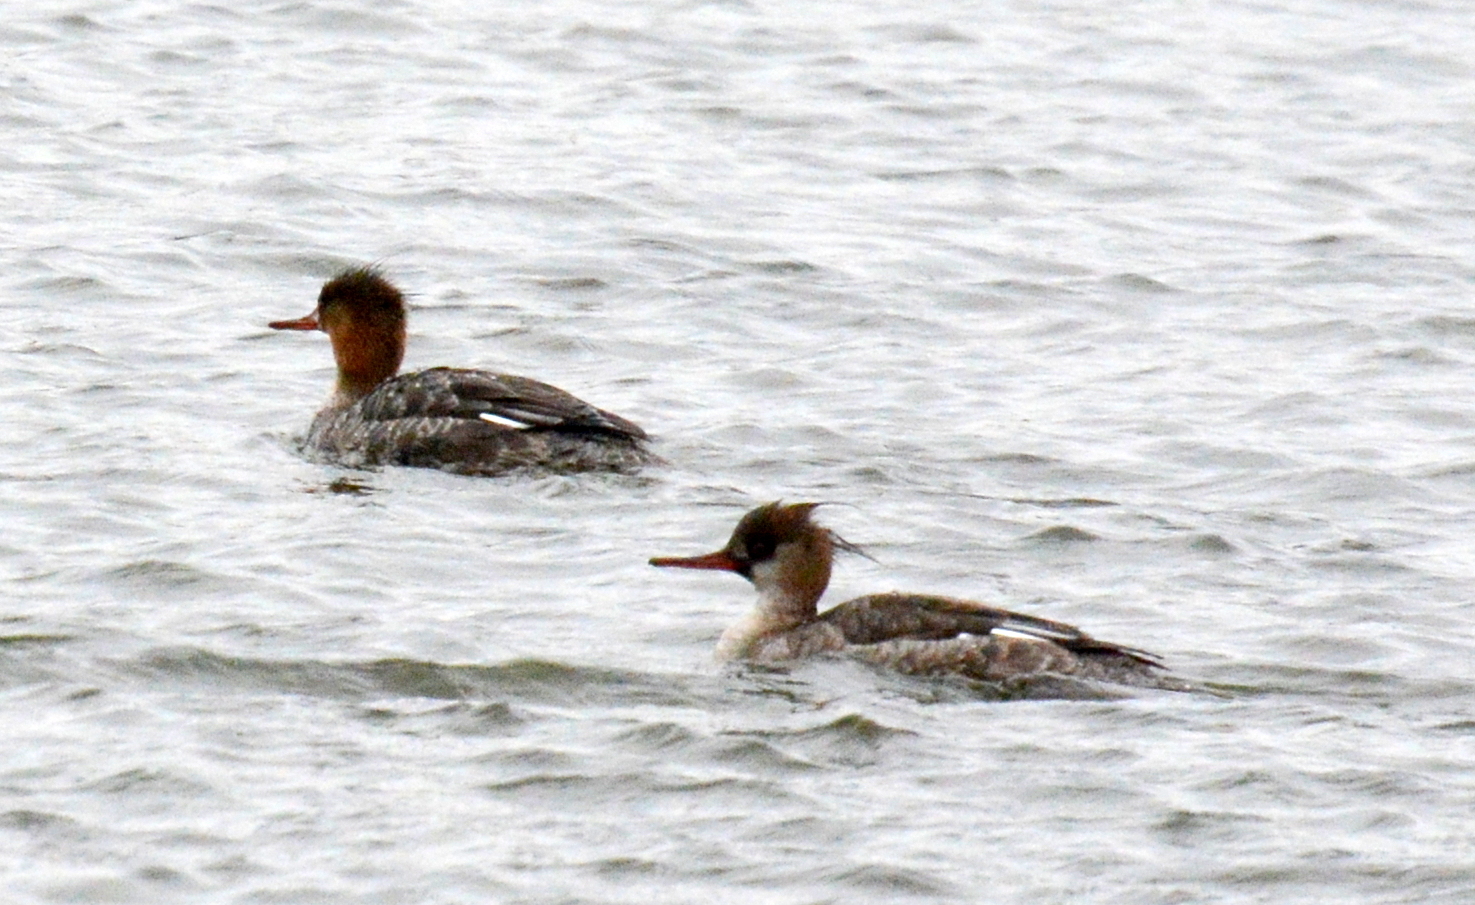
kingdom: Animalia
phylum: Chordata
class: Aves
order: Anseriformes
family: Anatidae
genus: Mergus
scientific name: Mergus serrator
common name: Red-breasted merganser
